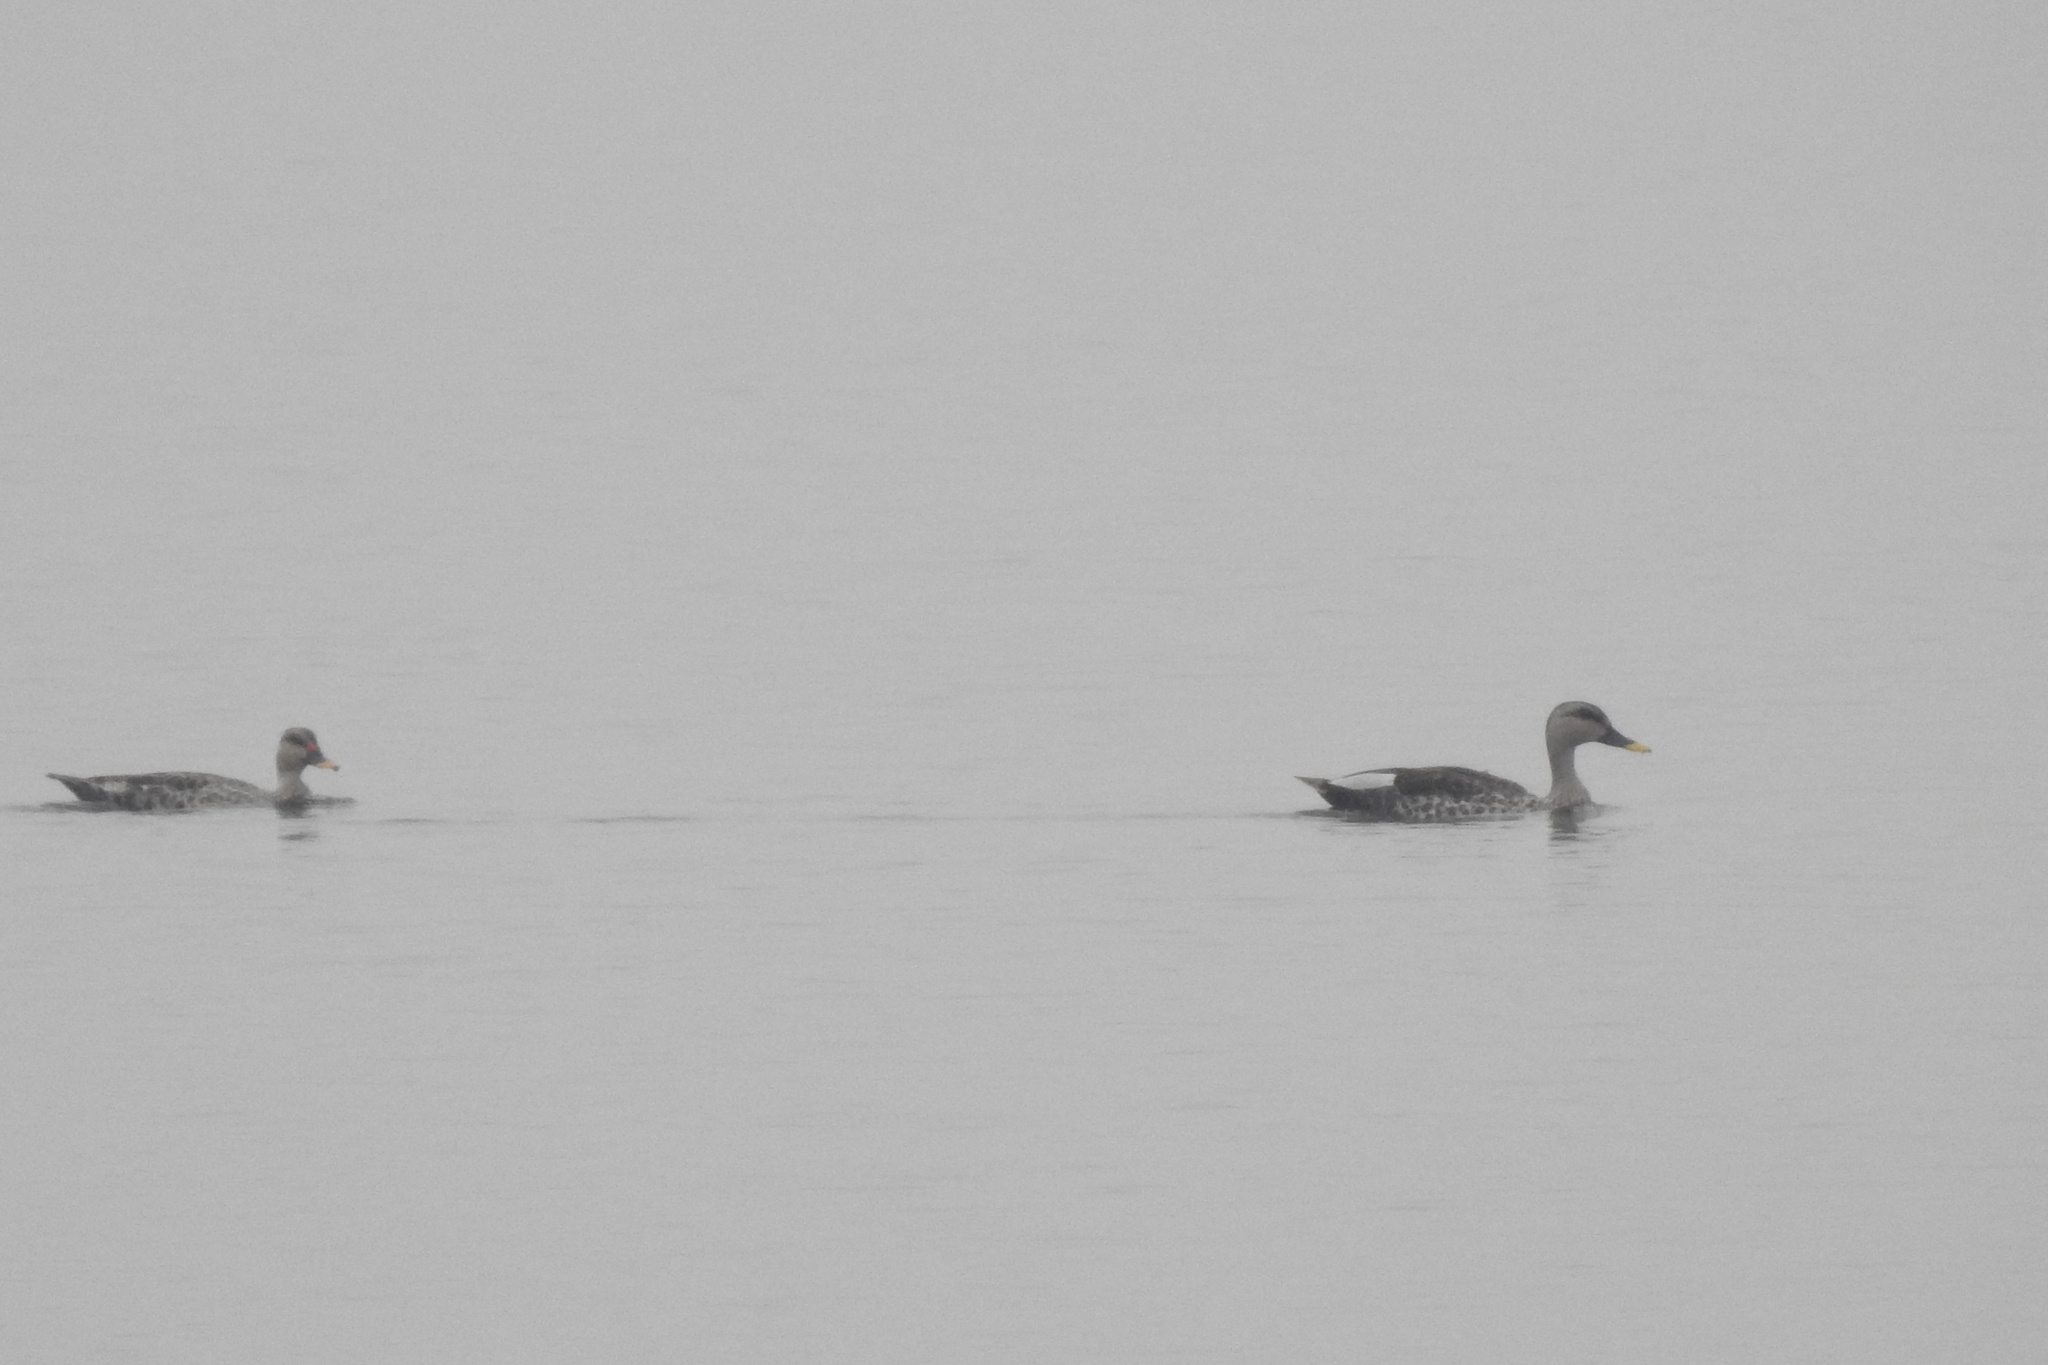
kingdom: Animalia
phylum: Chordata
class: Aves
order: Anseriformes
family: Anatidae
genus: Anas
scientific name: Anas poecilorhyncha
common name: Indian spot-billed duck
